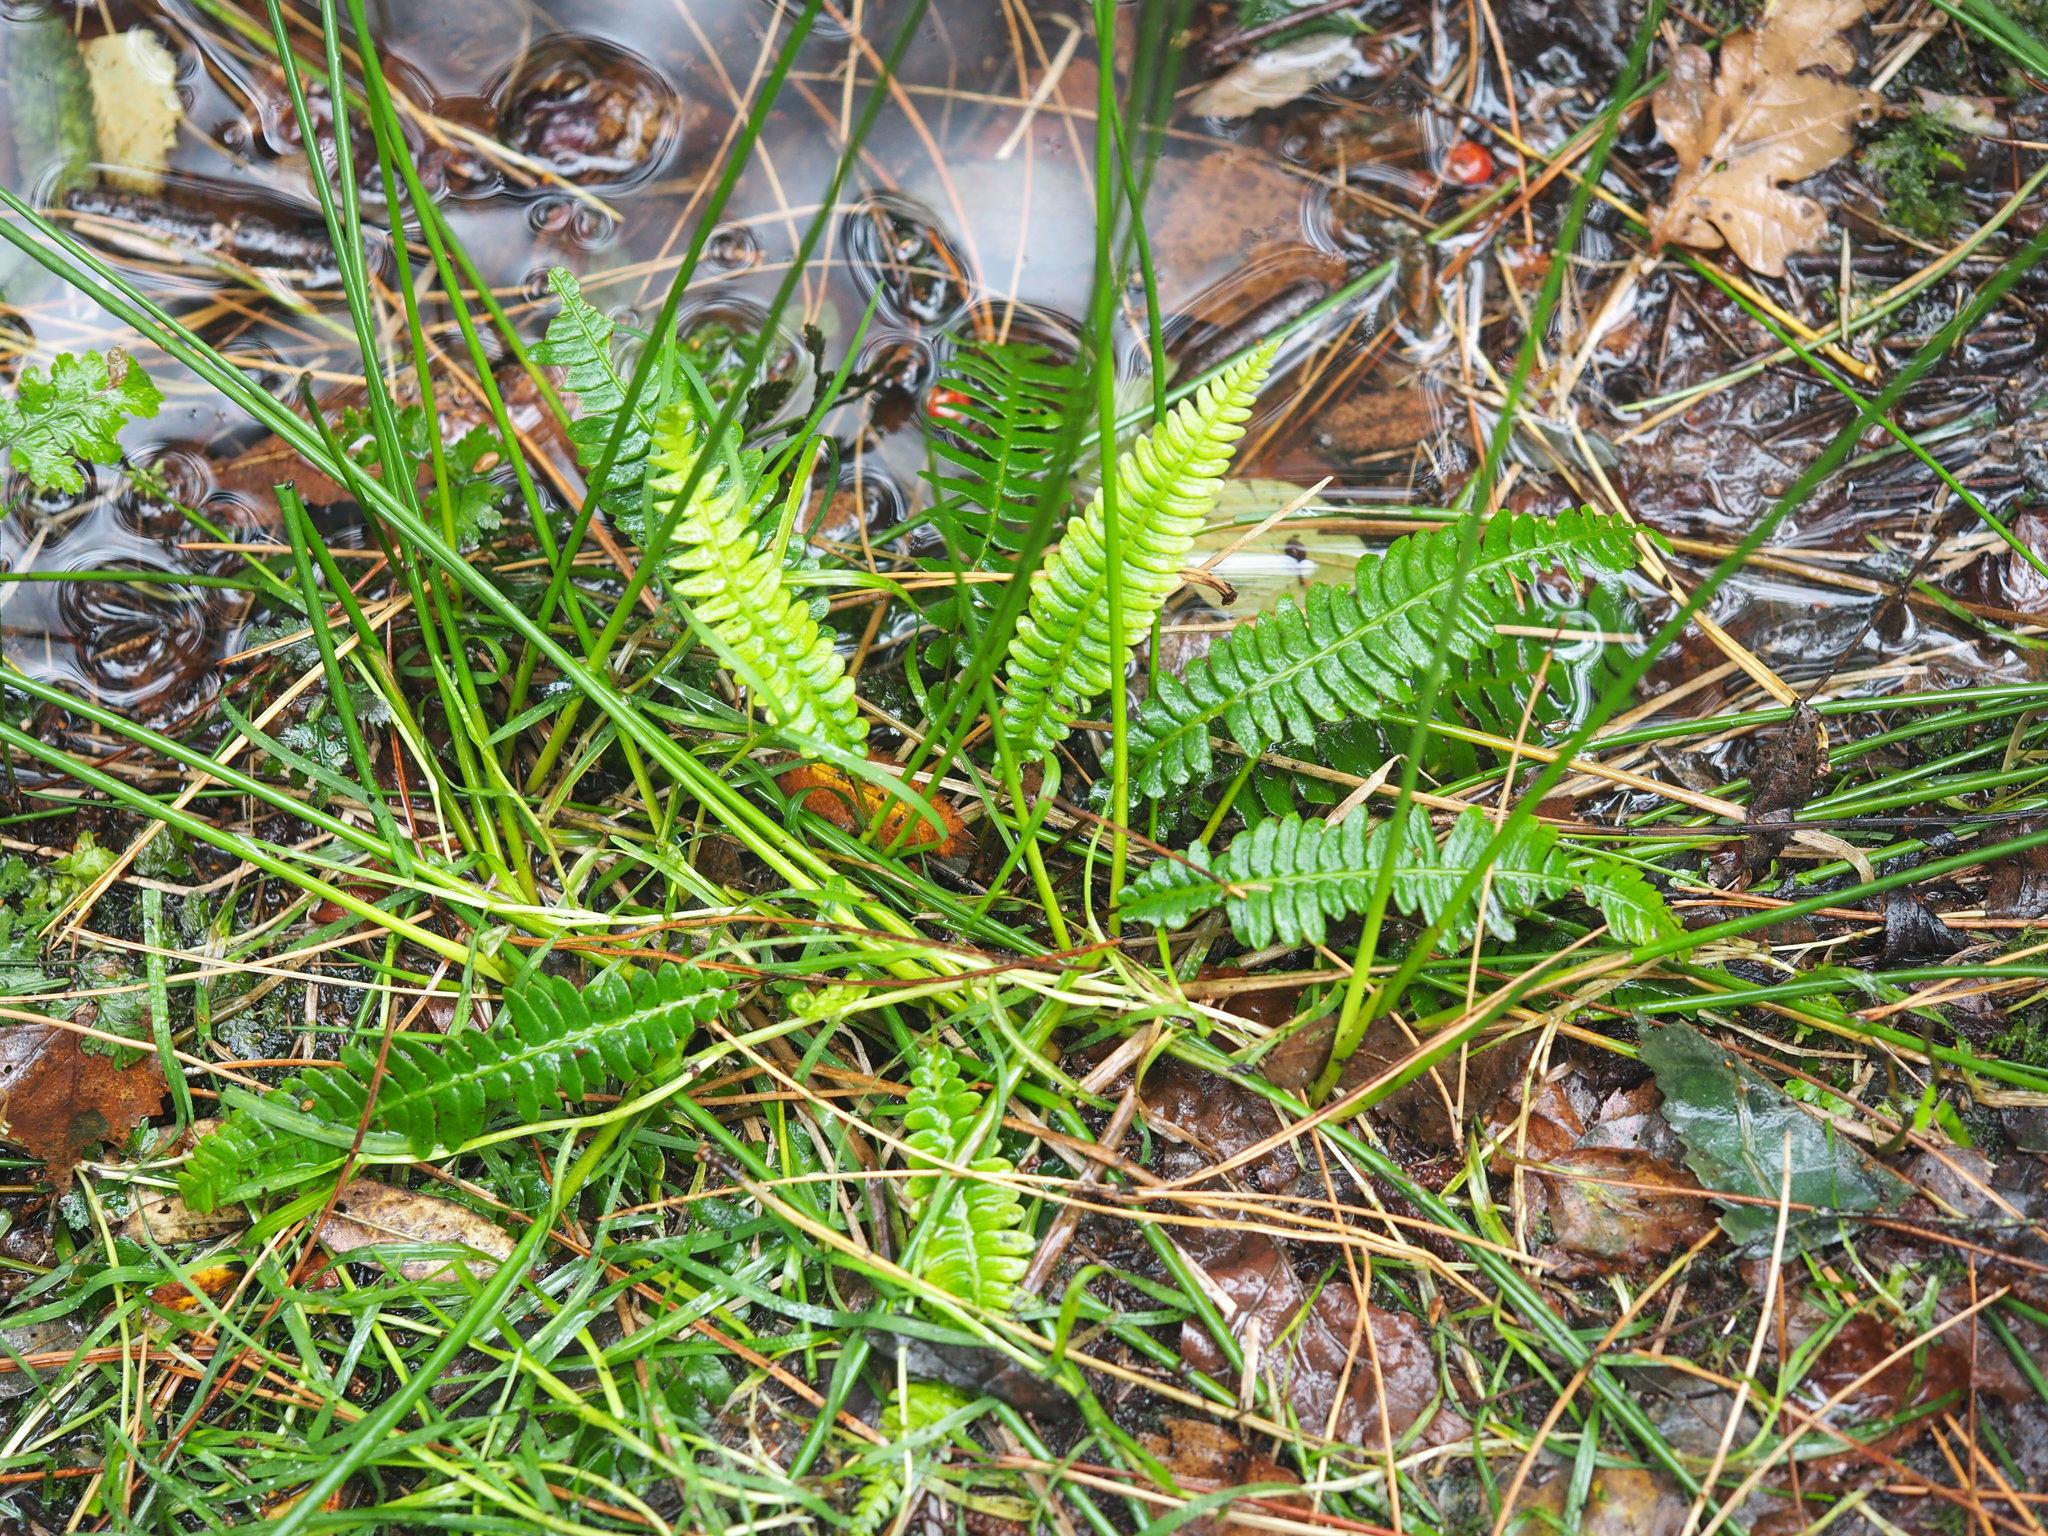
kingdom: Plantae
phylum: Tracheophyta
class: Polypodiopsida
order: Polypodiales
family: Blechnaceae
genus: Struthiopteris
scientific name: Struthiopteris spicant
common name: Deer fern
